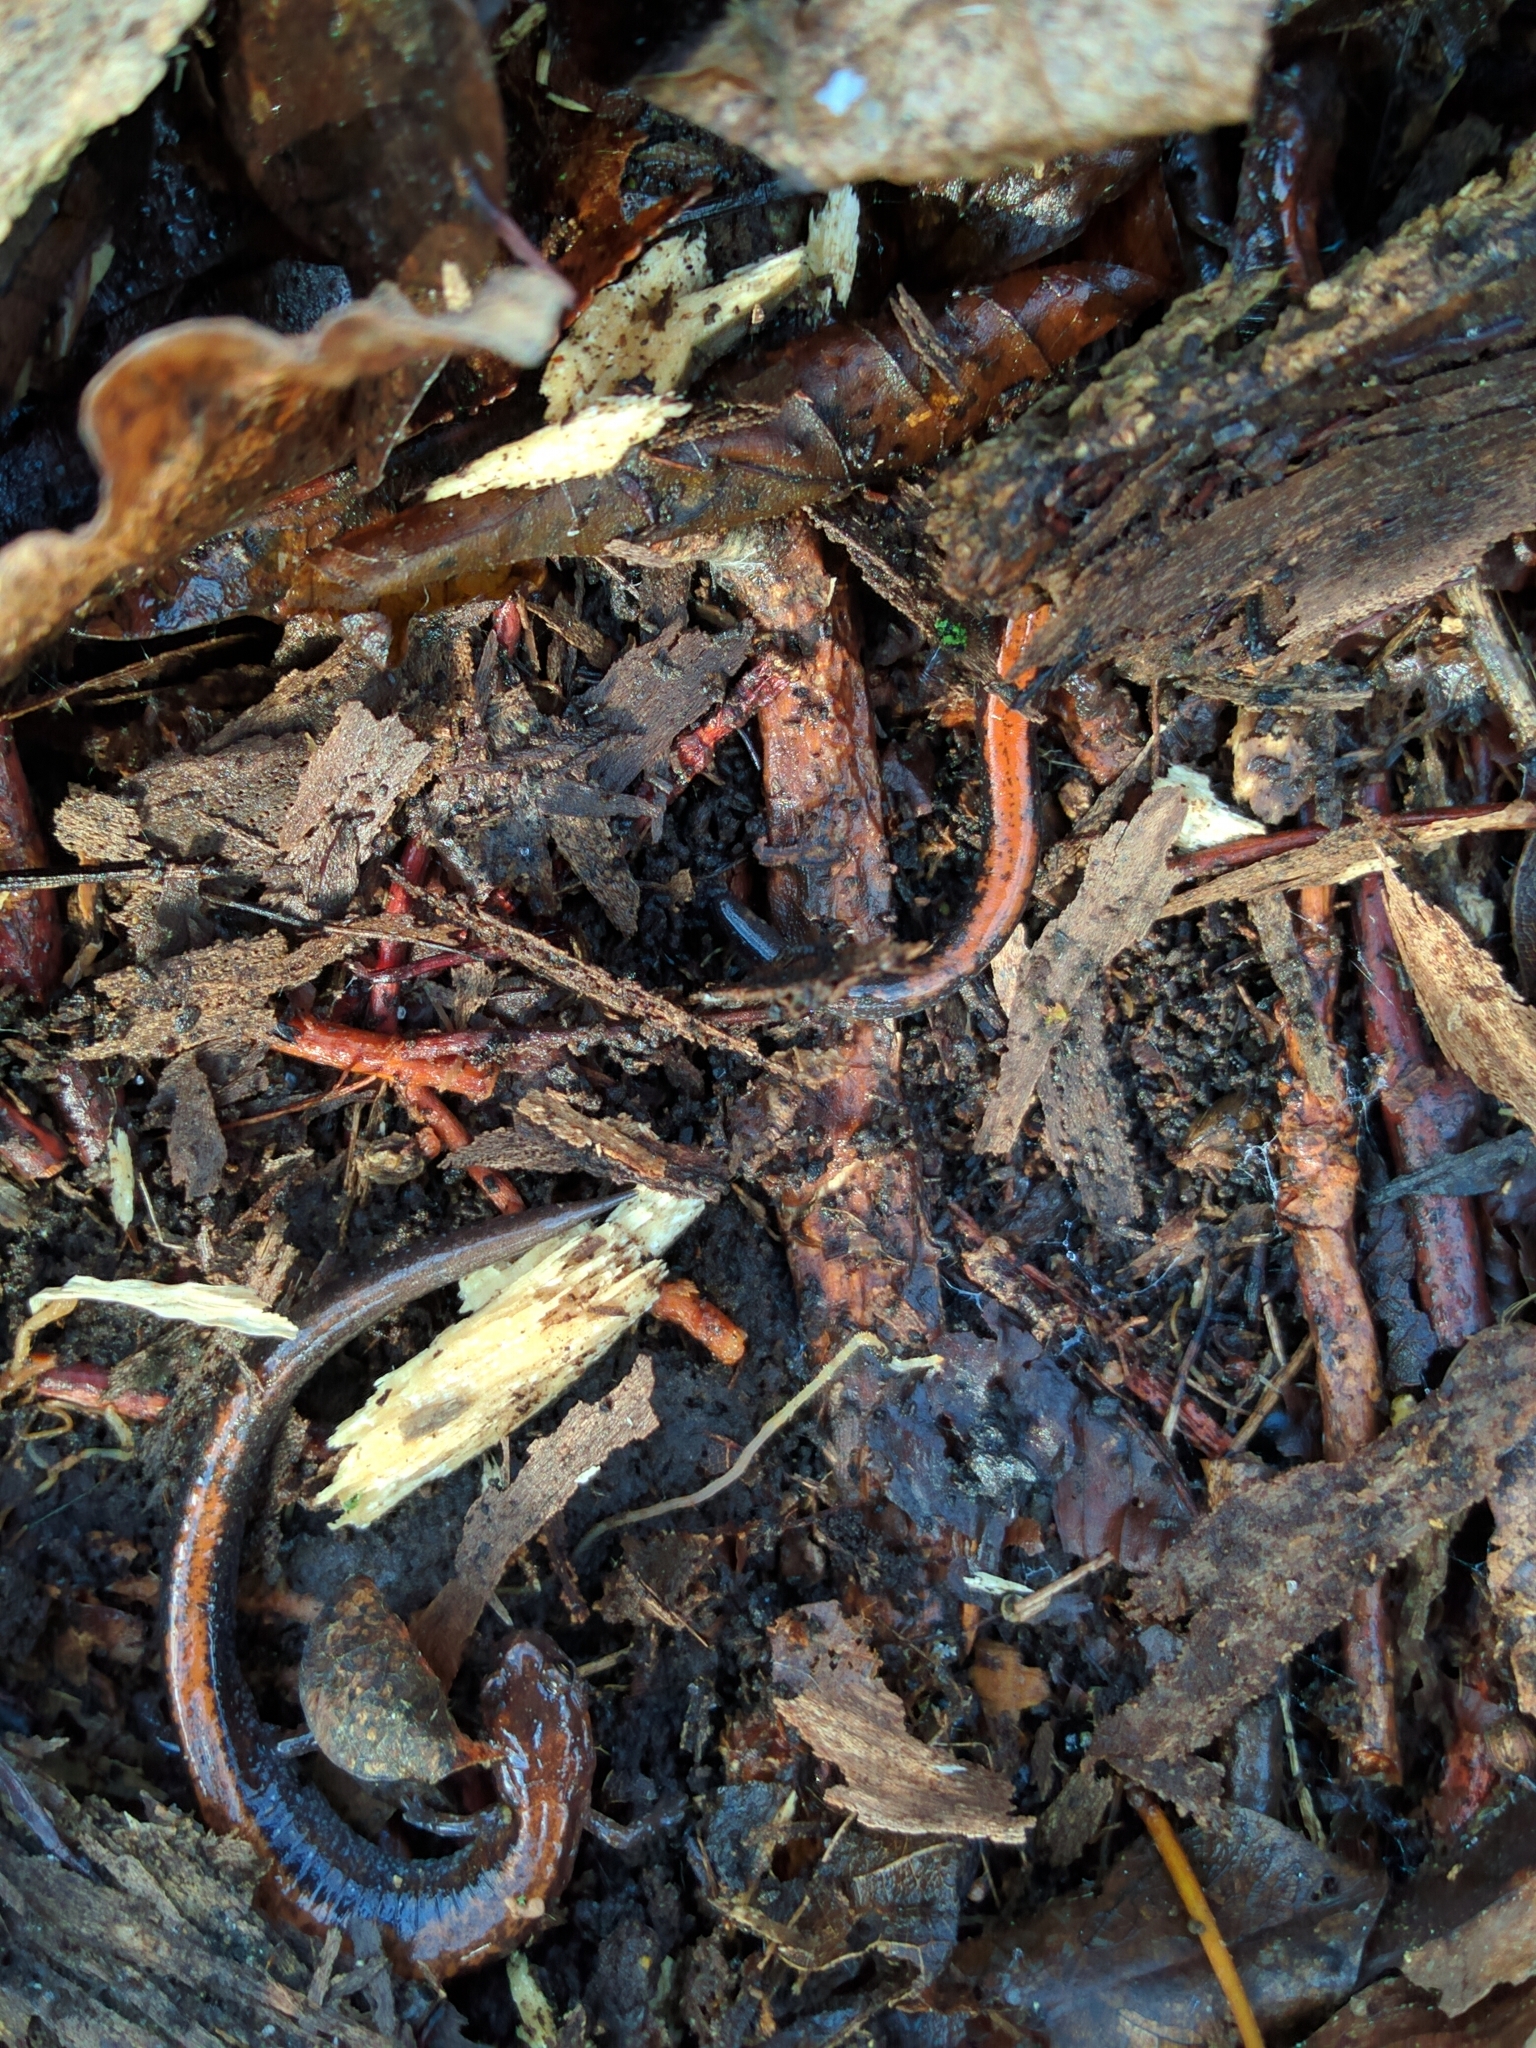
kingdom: Animalia
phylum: Chordata
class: Amphibia
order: Caudata
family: Plethodontidae
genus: Plethodon
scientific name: Plethodon cinereus
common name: Redback salamander
